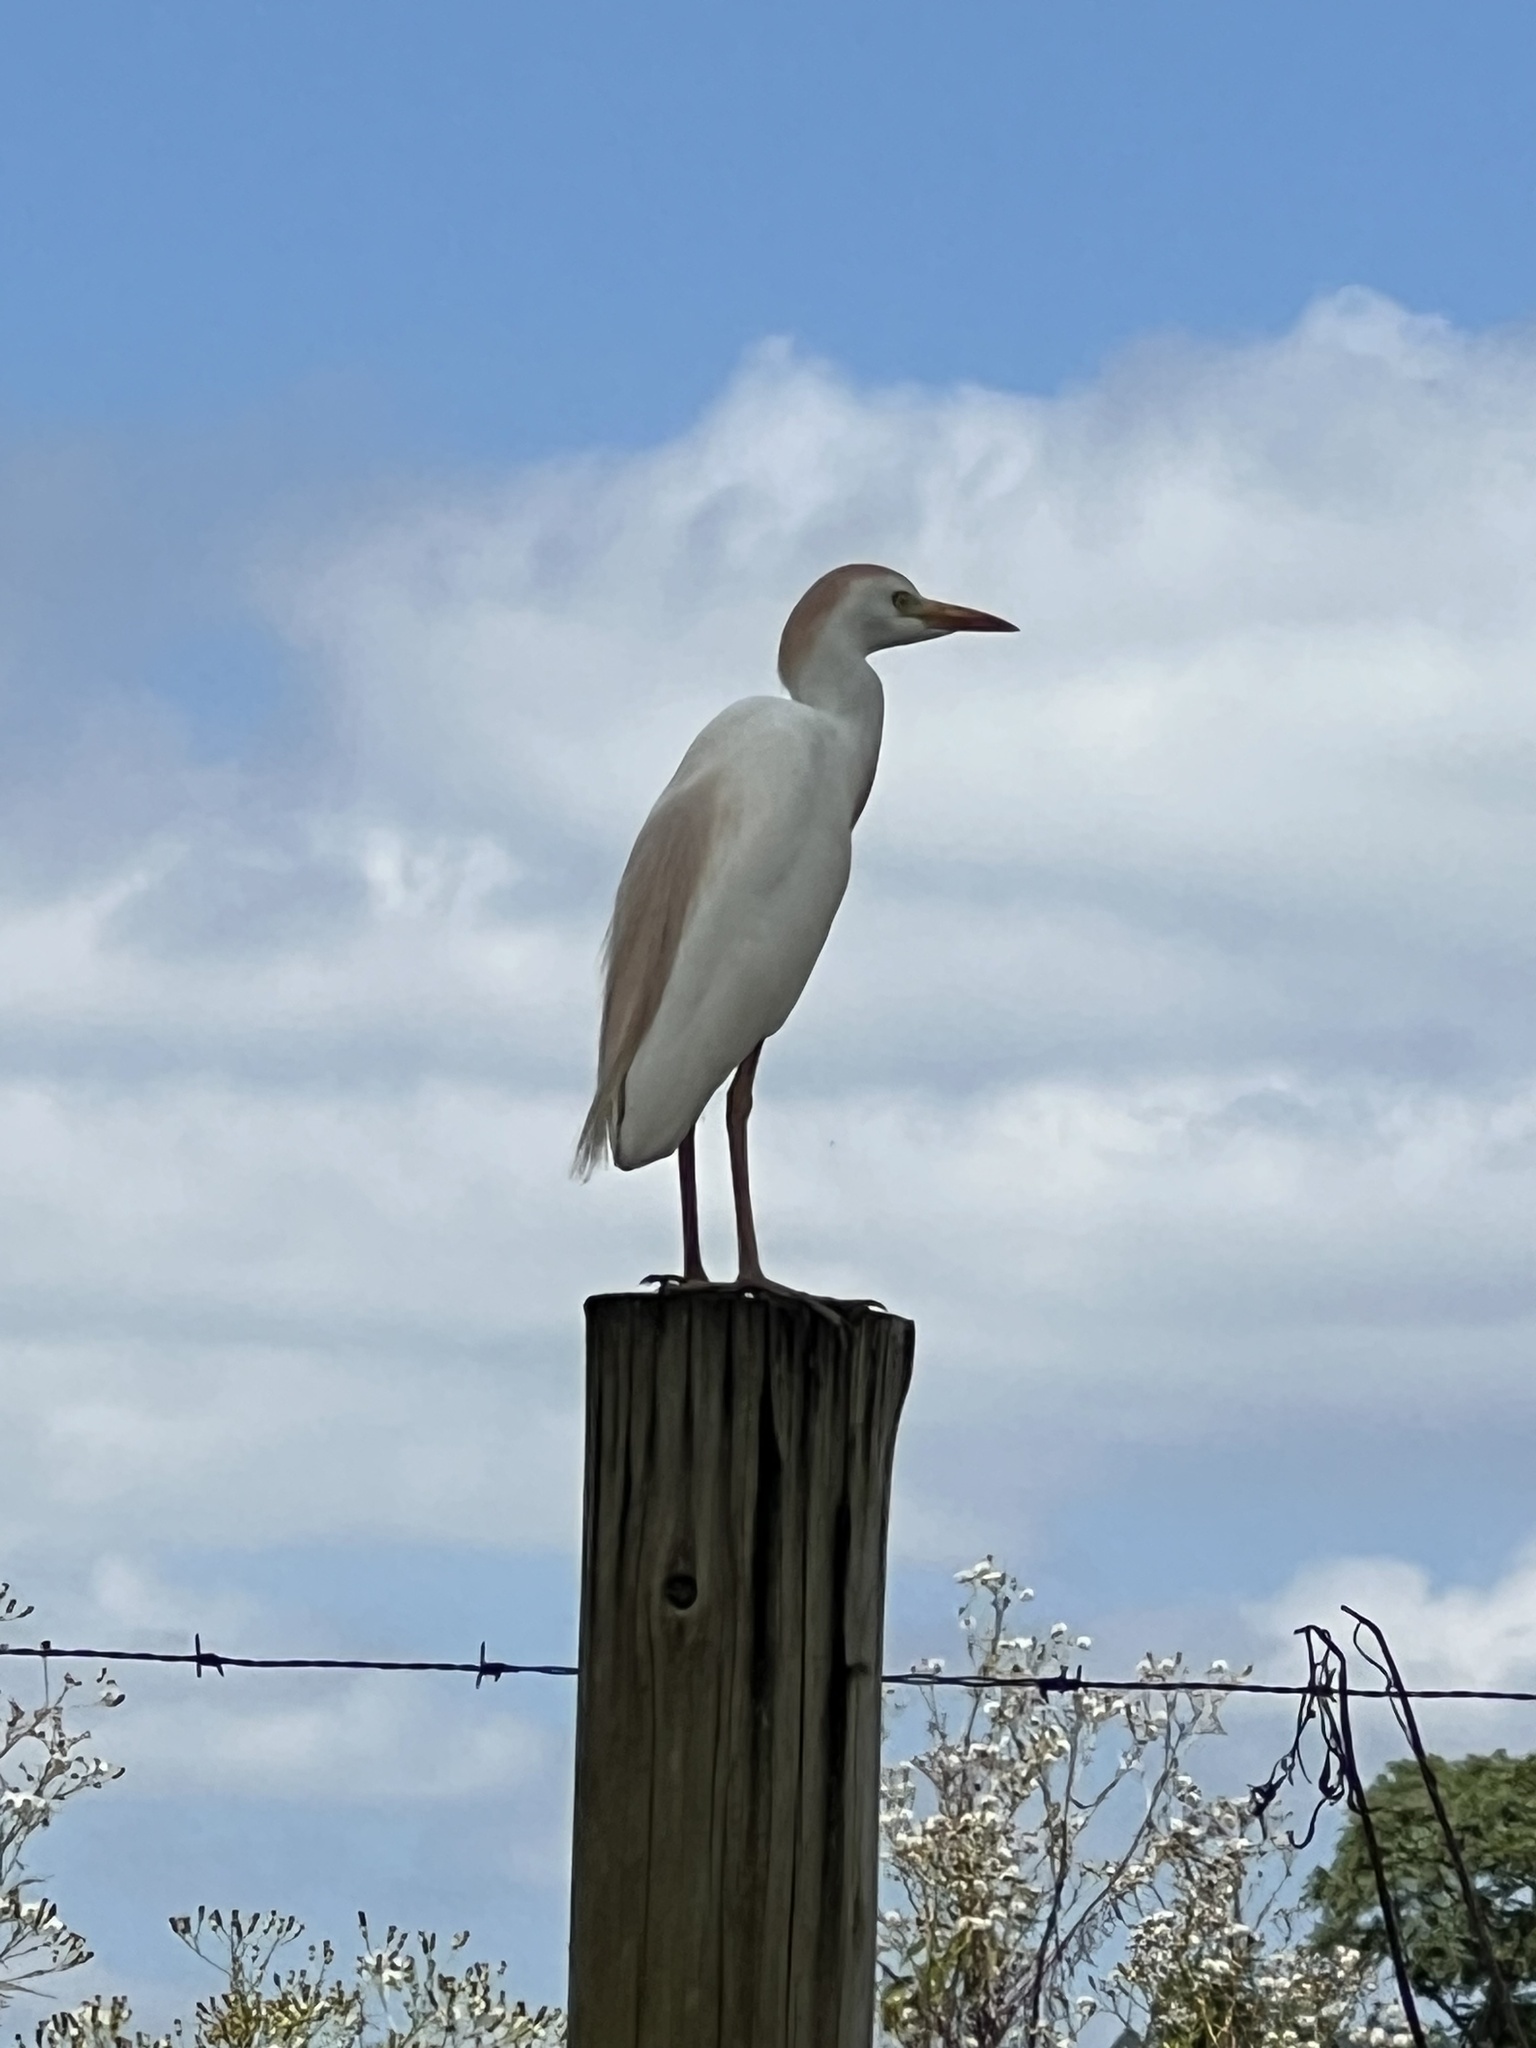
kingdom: Animalia
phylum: Chordata
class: Aves
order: Pelecaniformes
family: Ardeidae
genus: Bubulcus
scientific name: Bubulcus ibis
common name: Cattle egret
